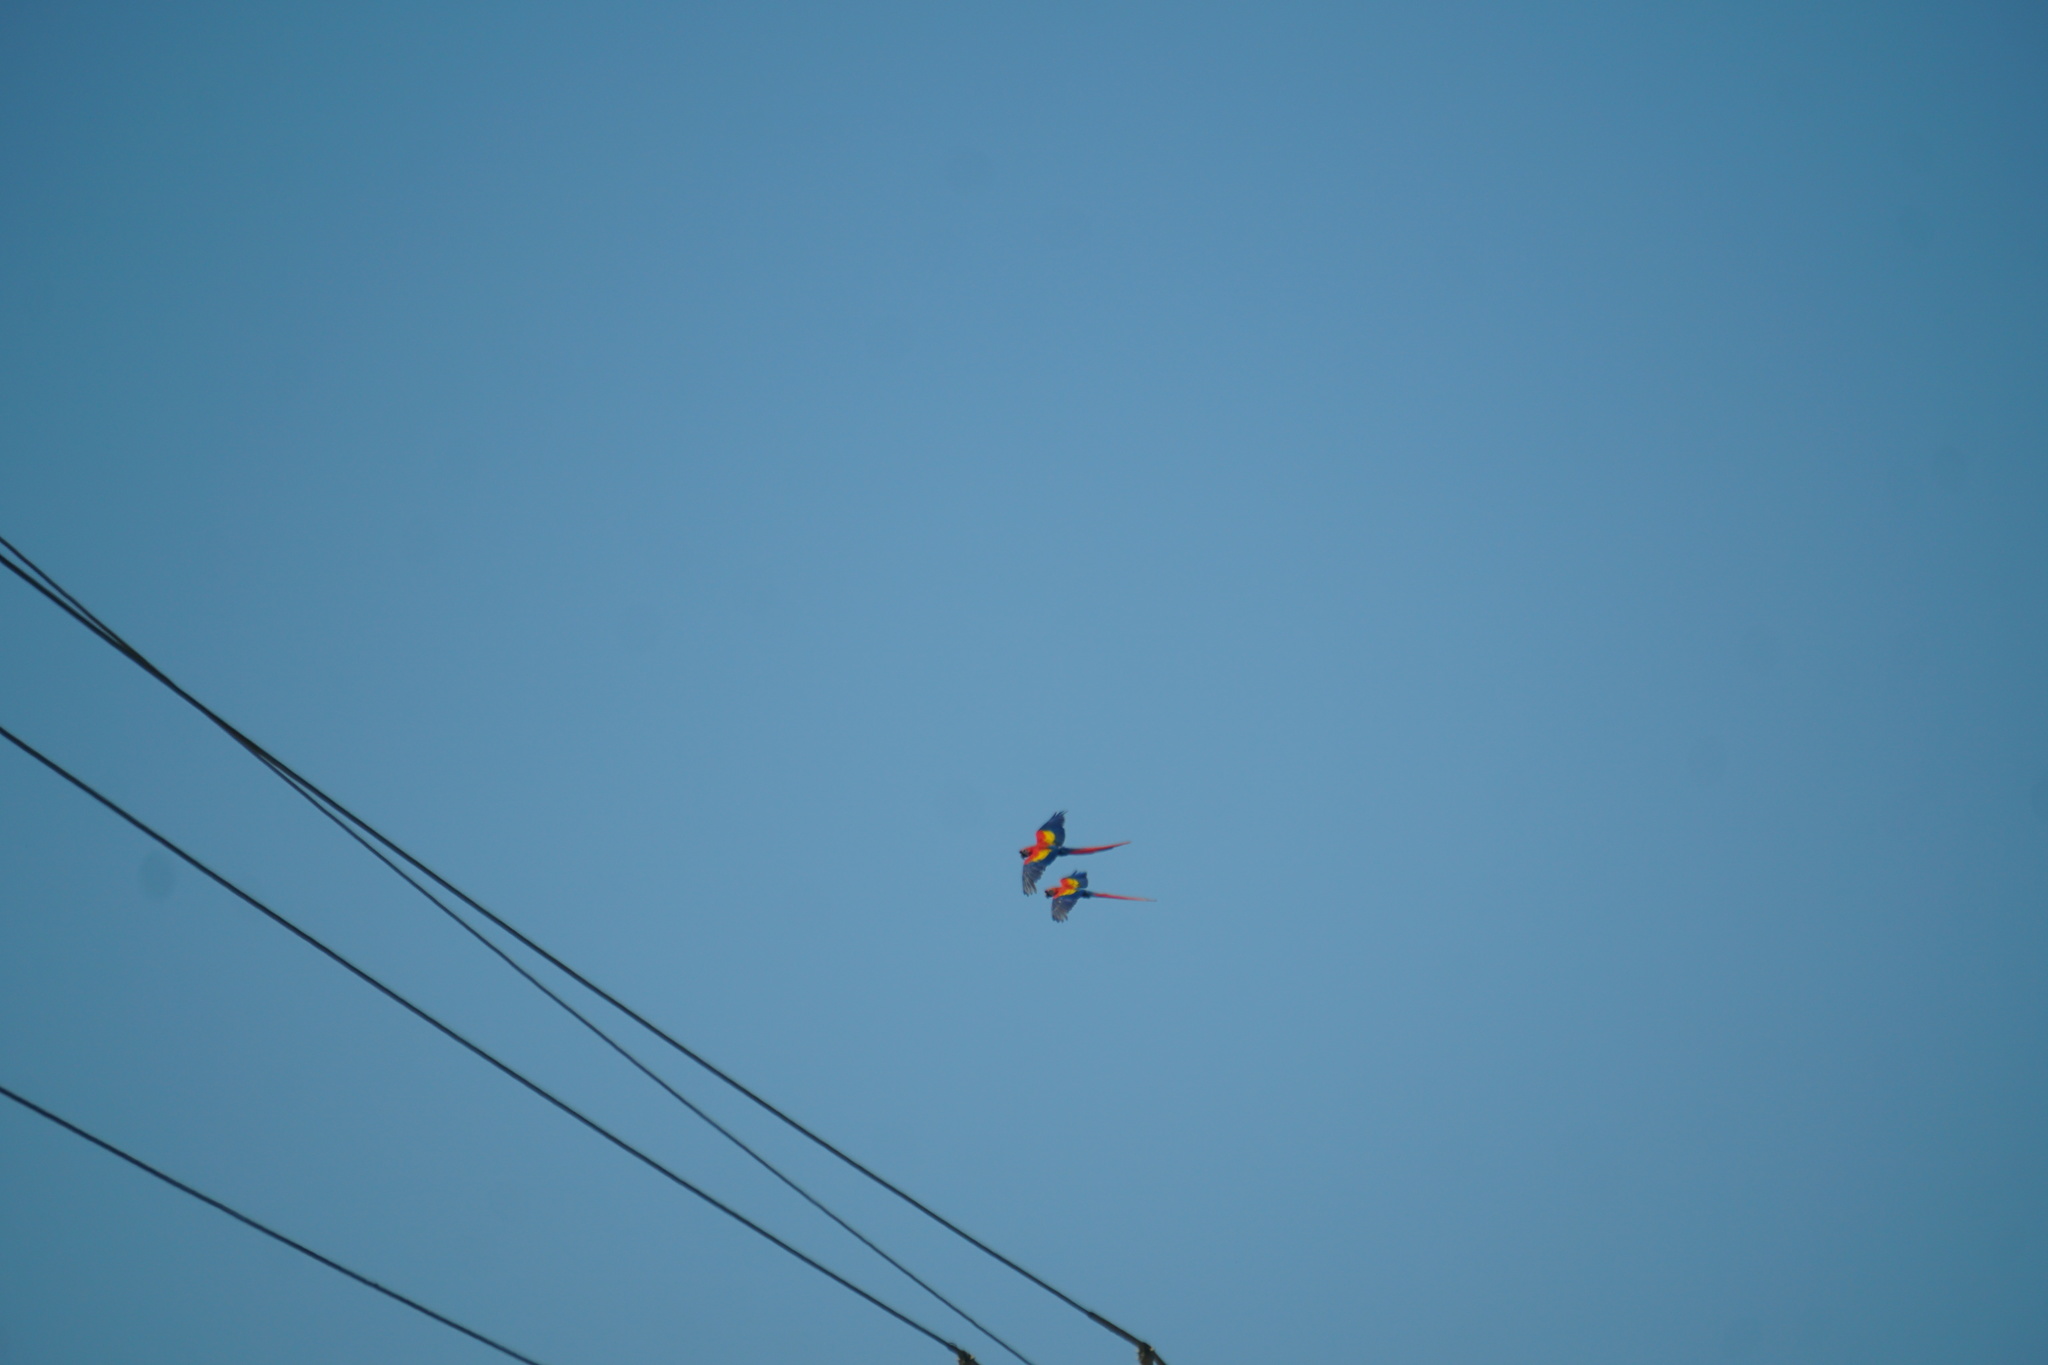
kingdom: Animalia
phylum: Chordata
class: Aves
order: Psittaciformes
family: Psittacidae
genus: Ara
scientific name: Ara macao
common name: Scarlet macaw
